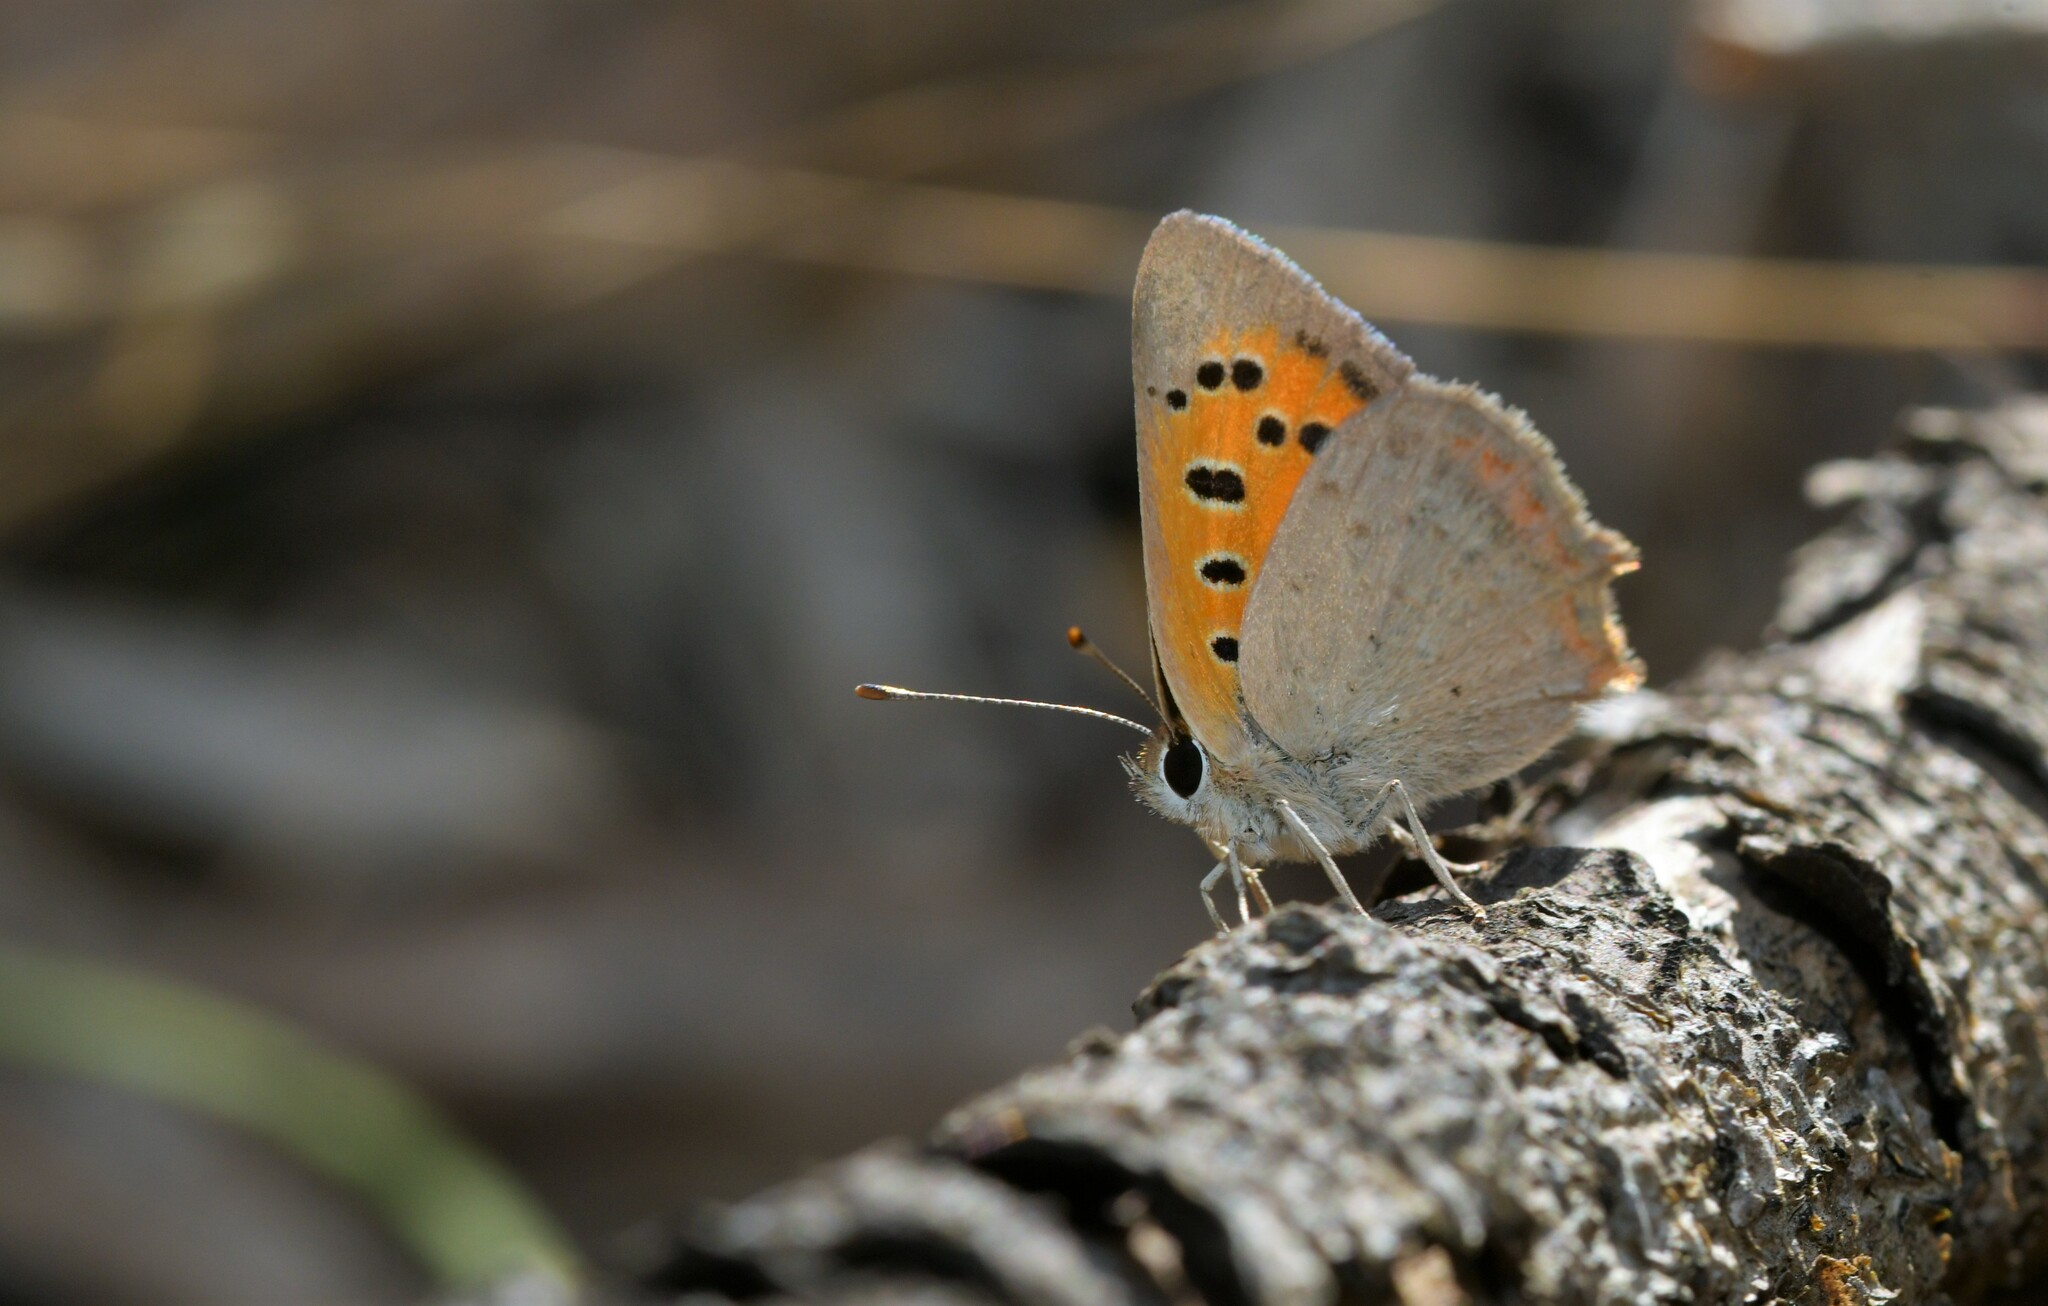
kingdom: Animalia
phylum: Arthropoda
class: Insecta
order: Lepidoptera
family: Lycaenidae
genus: Lycaena
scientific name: Lycaena phlaeas
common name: Small copper
